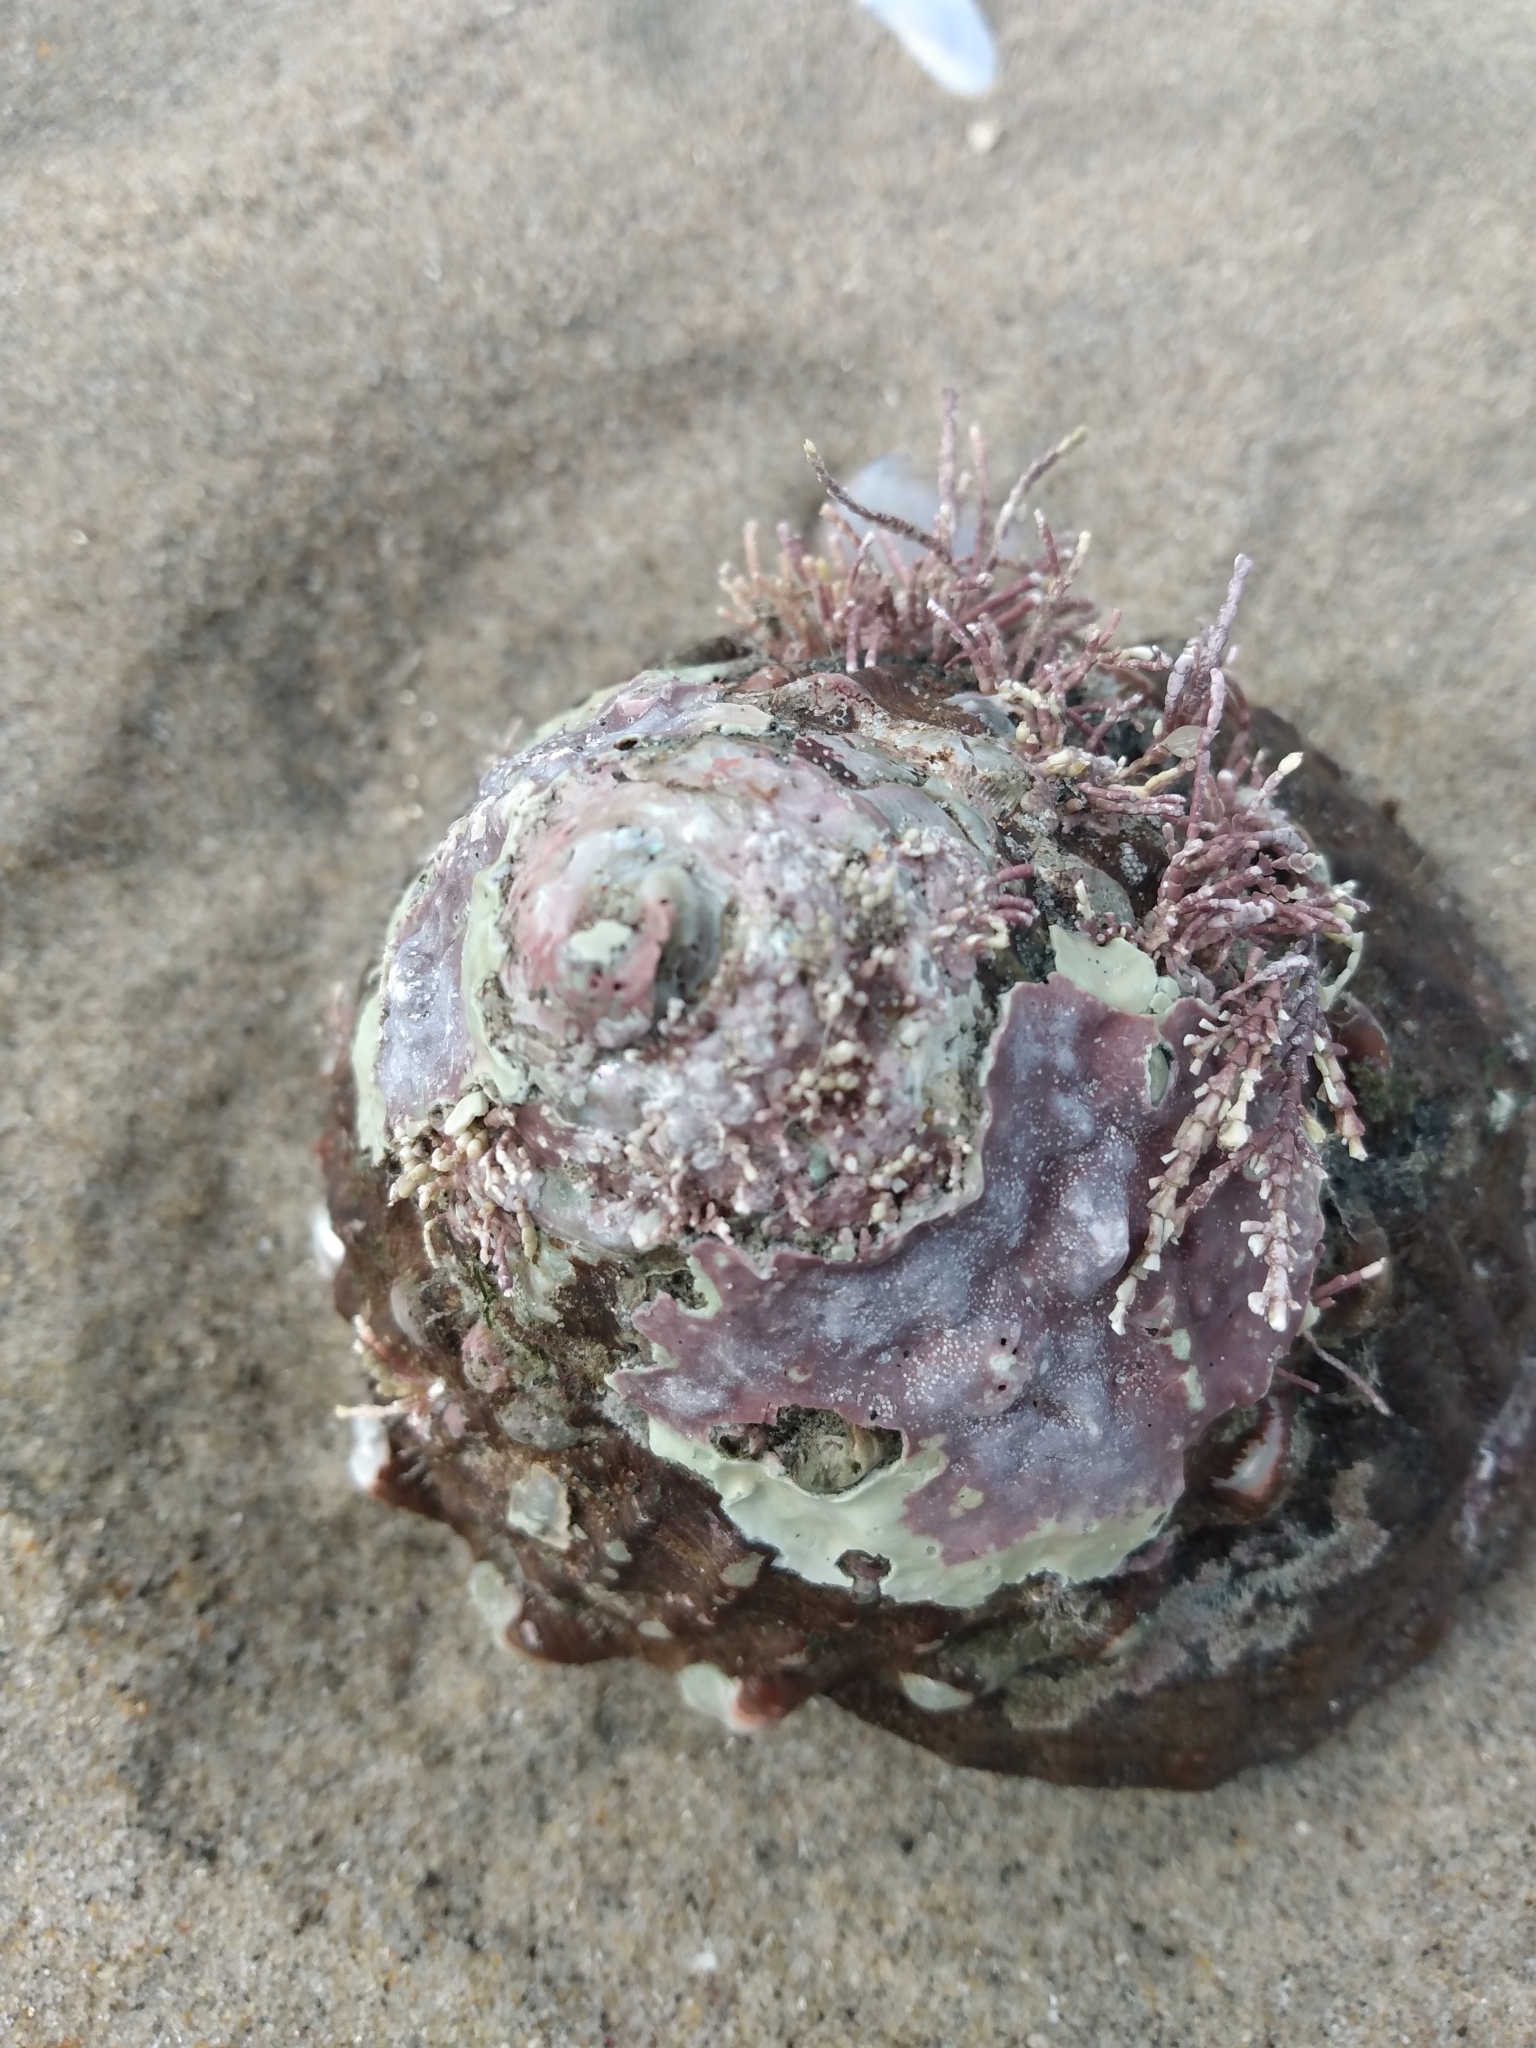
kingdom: Animalia
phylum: Mollusca
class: Gastropoda
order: Trochida
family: Turbinidae
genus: Megastraea
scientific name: Megastraea undosa
